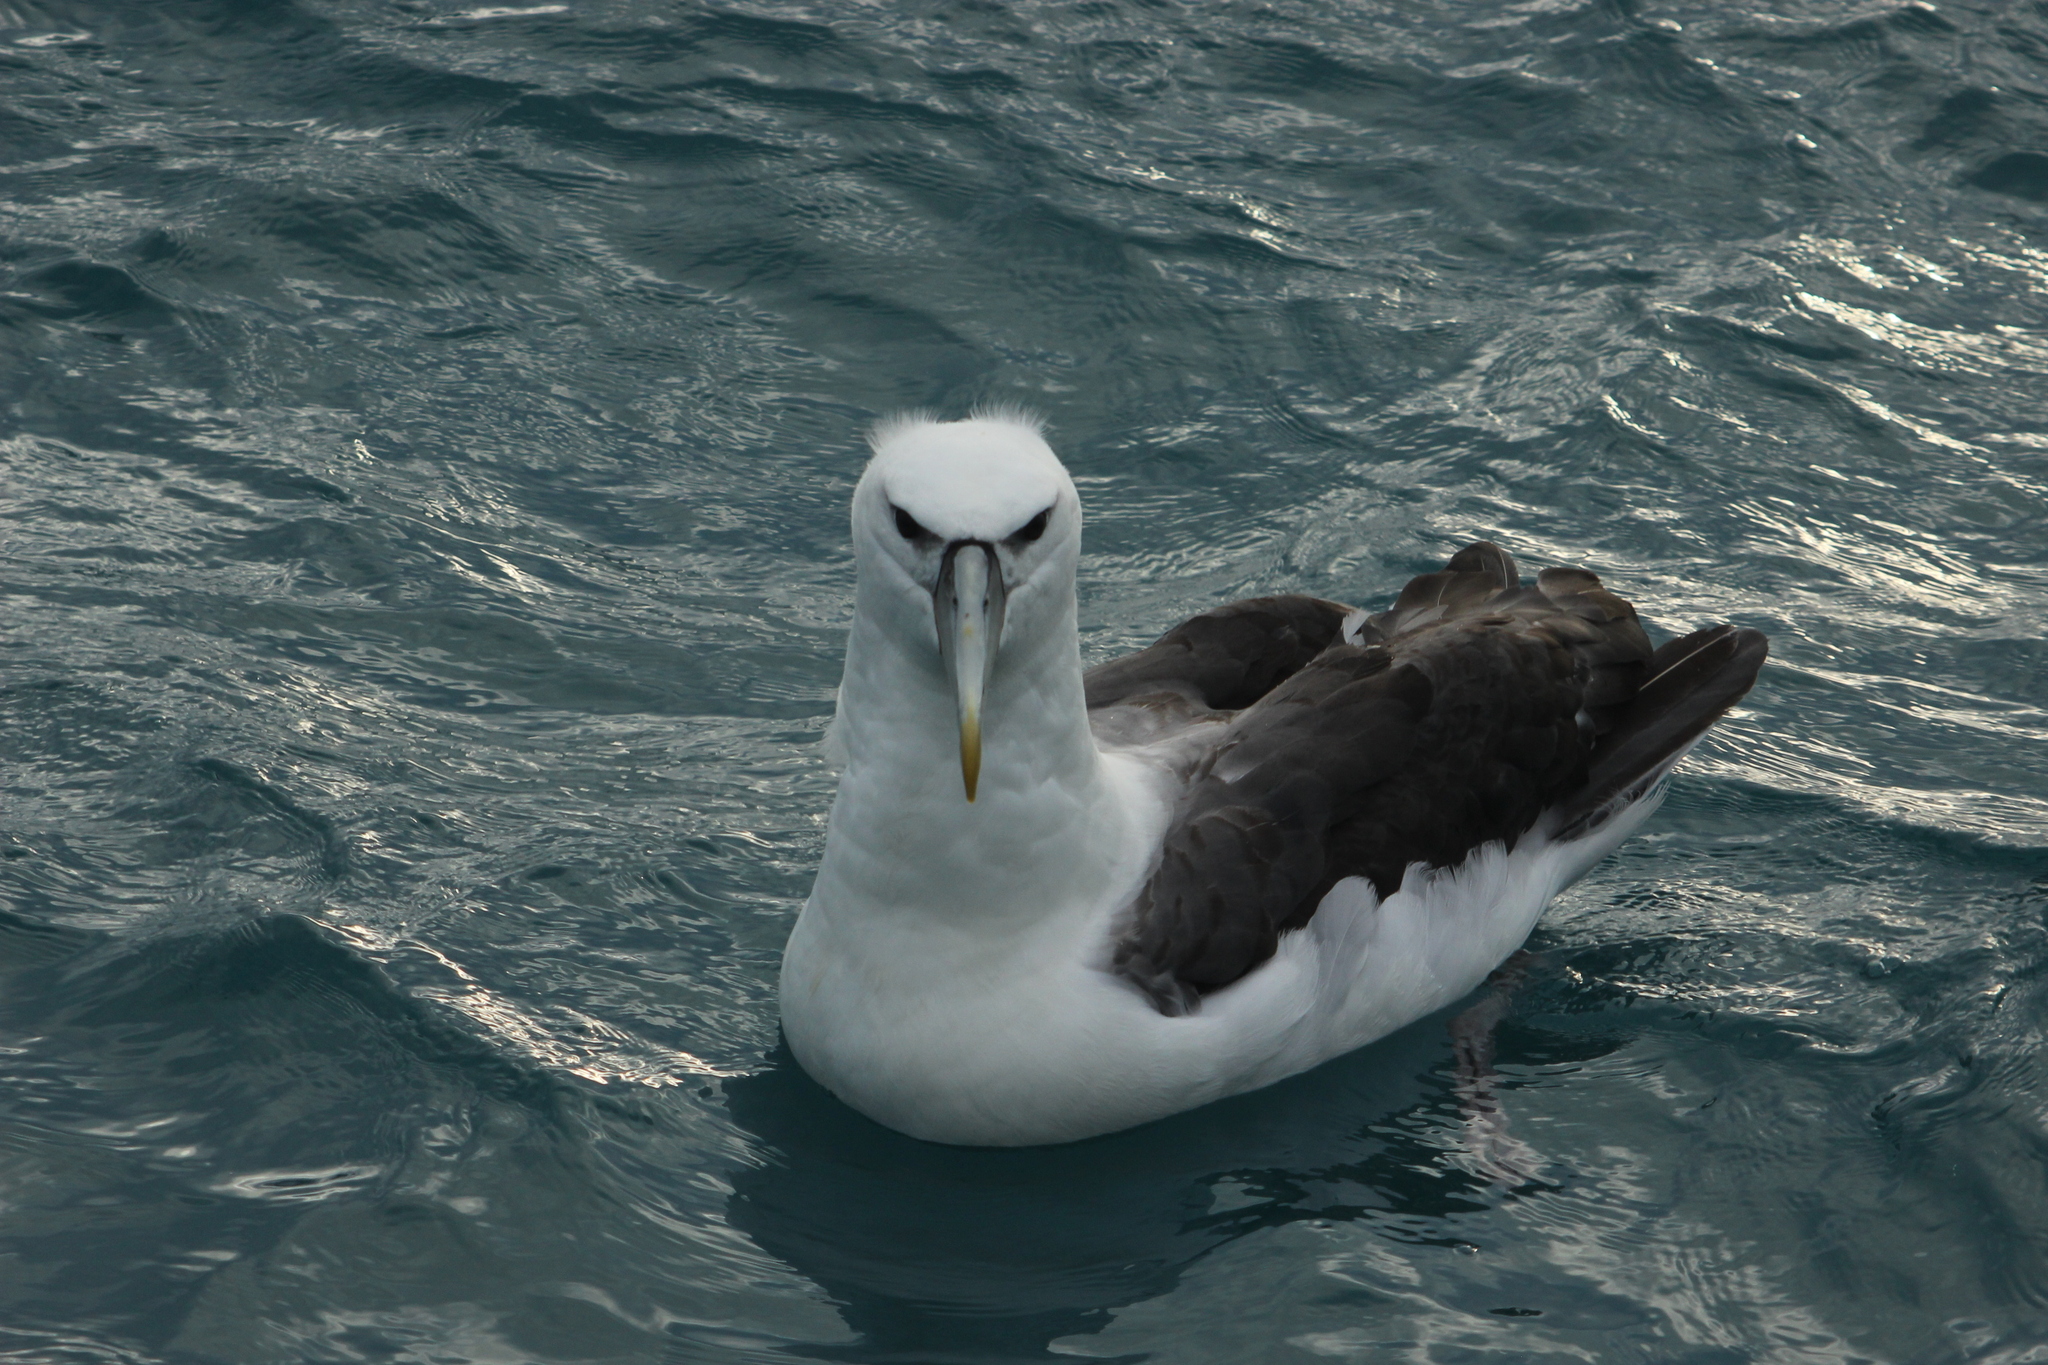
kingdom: Animalia
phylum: Chordata
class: Aves
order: Procellariiformes
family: Diomedeidae
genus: Thalassarche
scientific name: Thalassarche cauta
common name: Shy albatross
